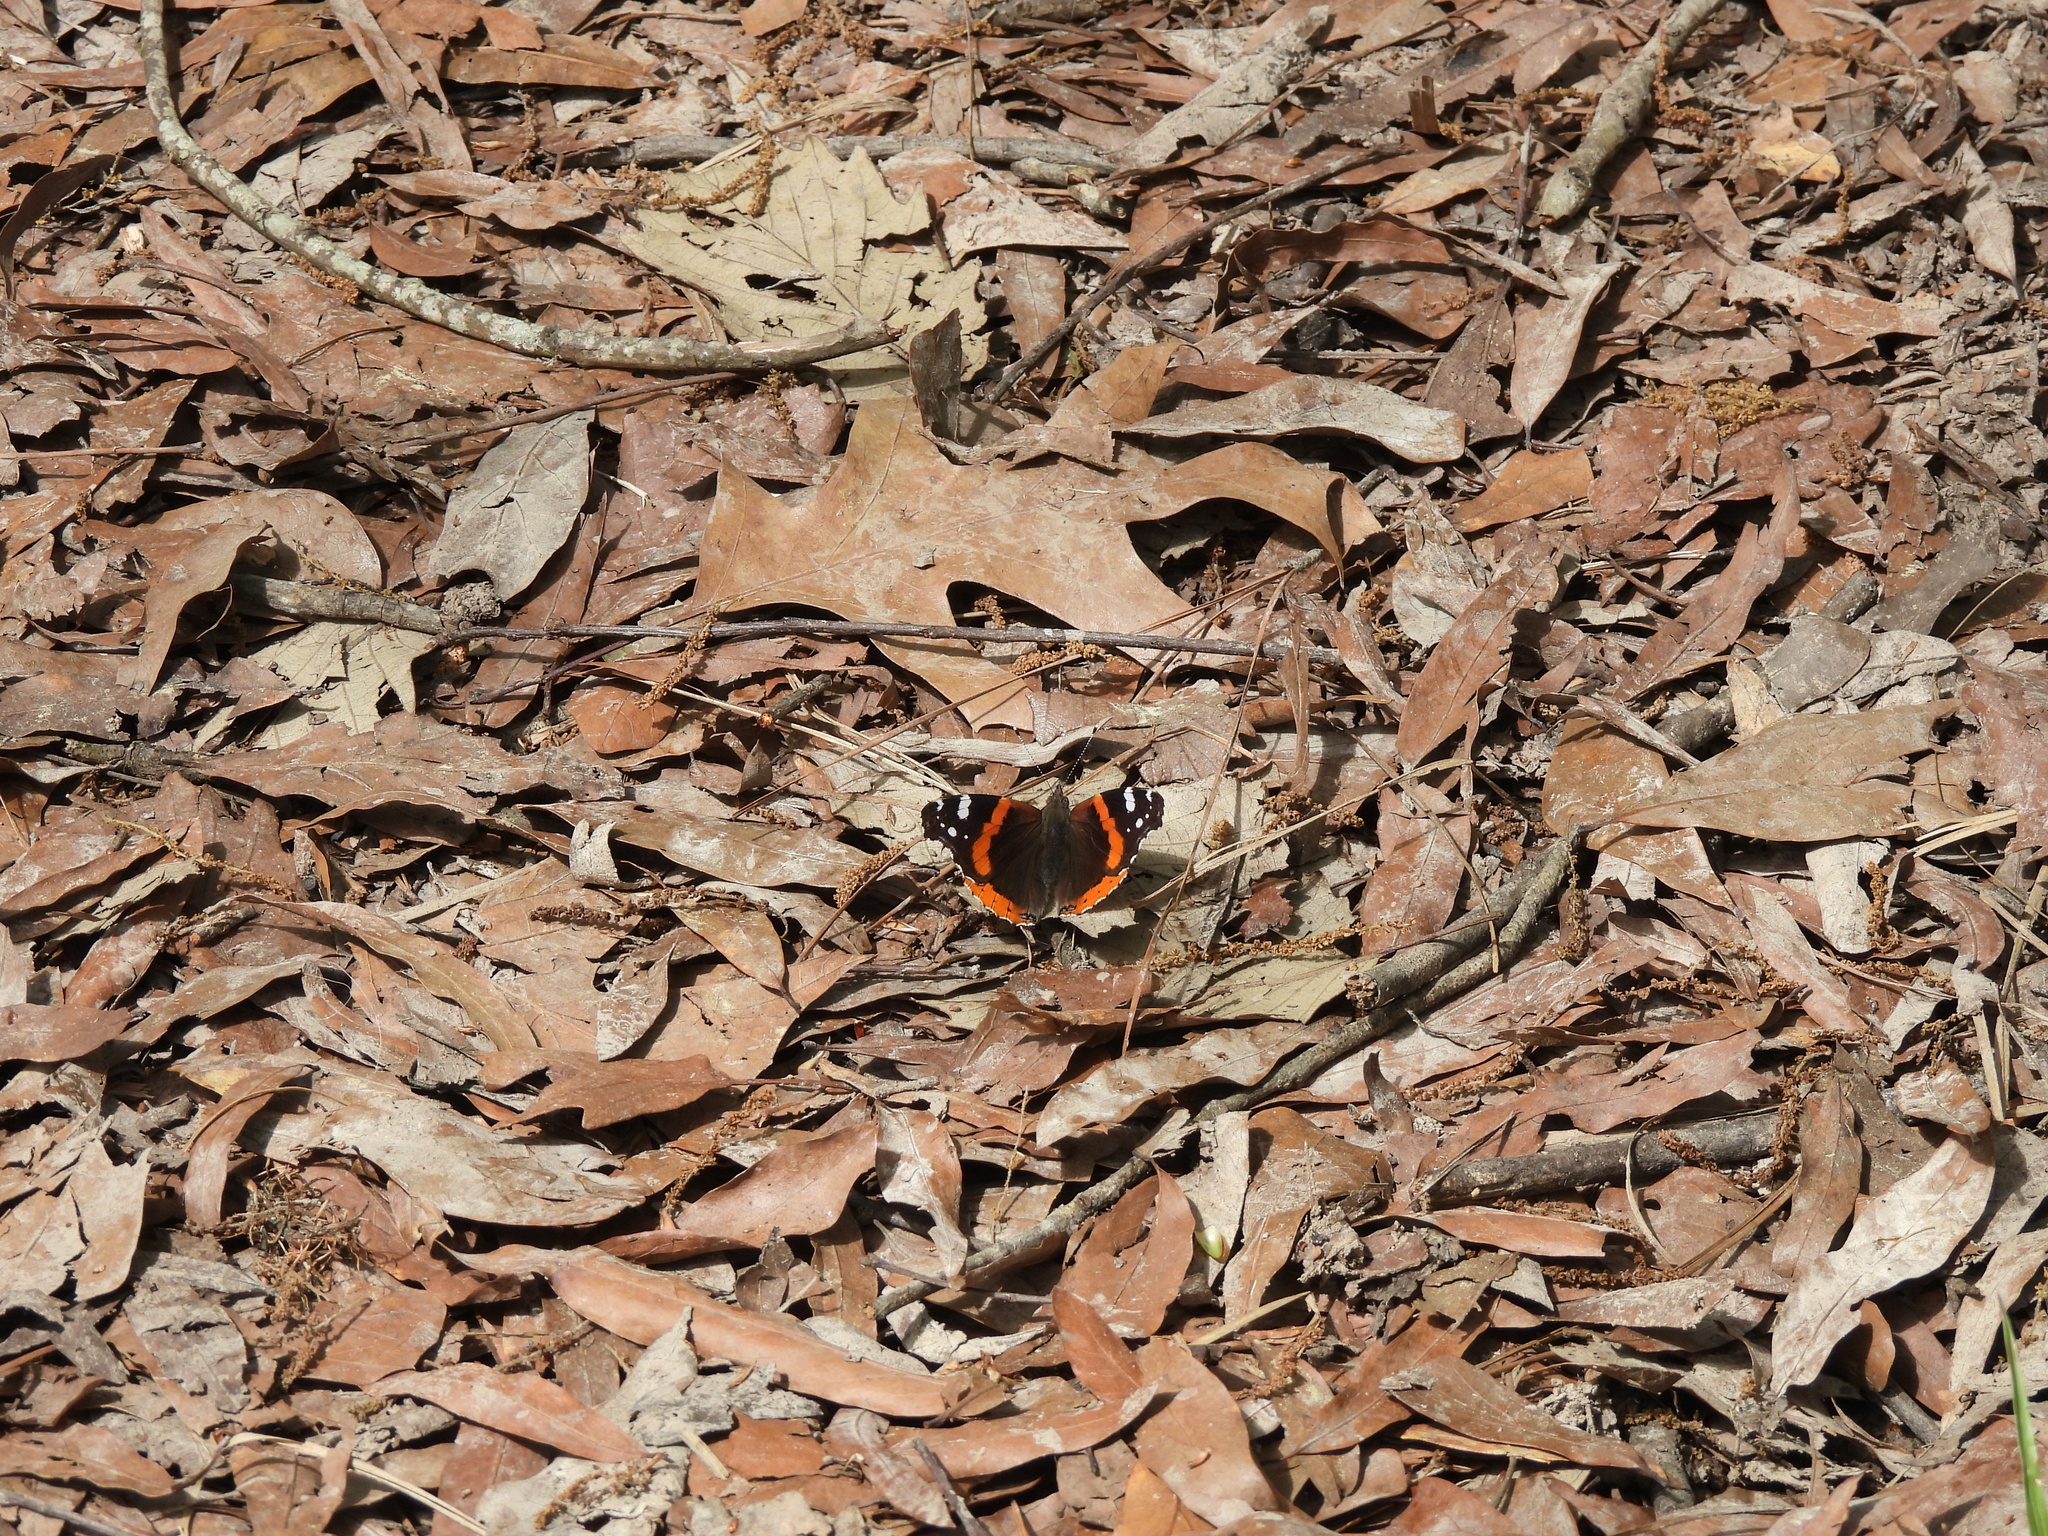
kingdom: Animalia
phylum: Arthropoda
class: Insecta
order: Lepidoptera
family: Nymphalidae
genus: Vanessa
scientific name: Vanessa atalanta
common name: Red admiral
